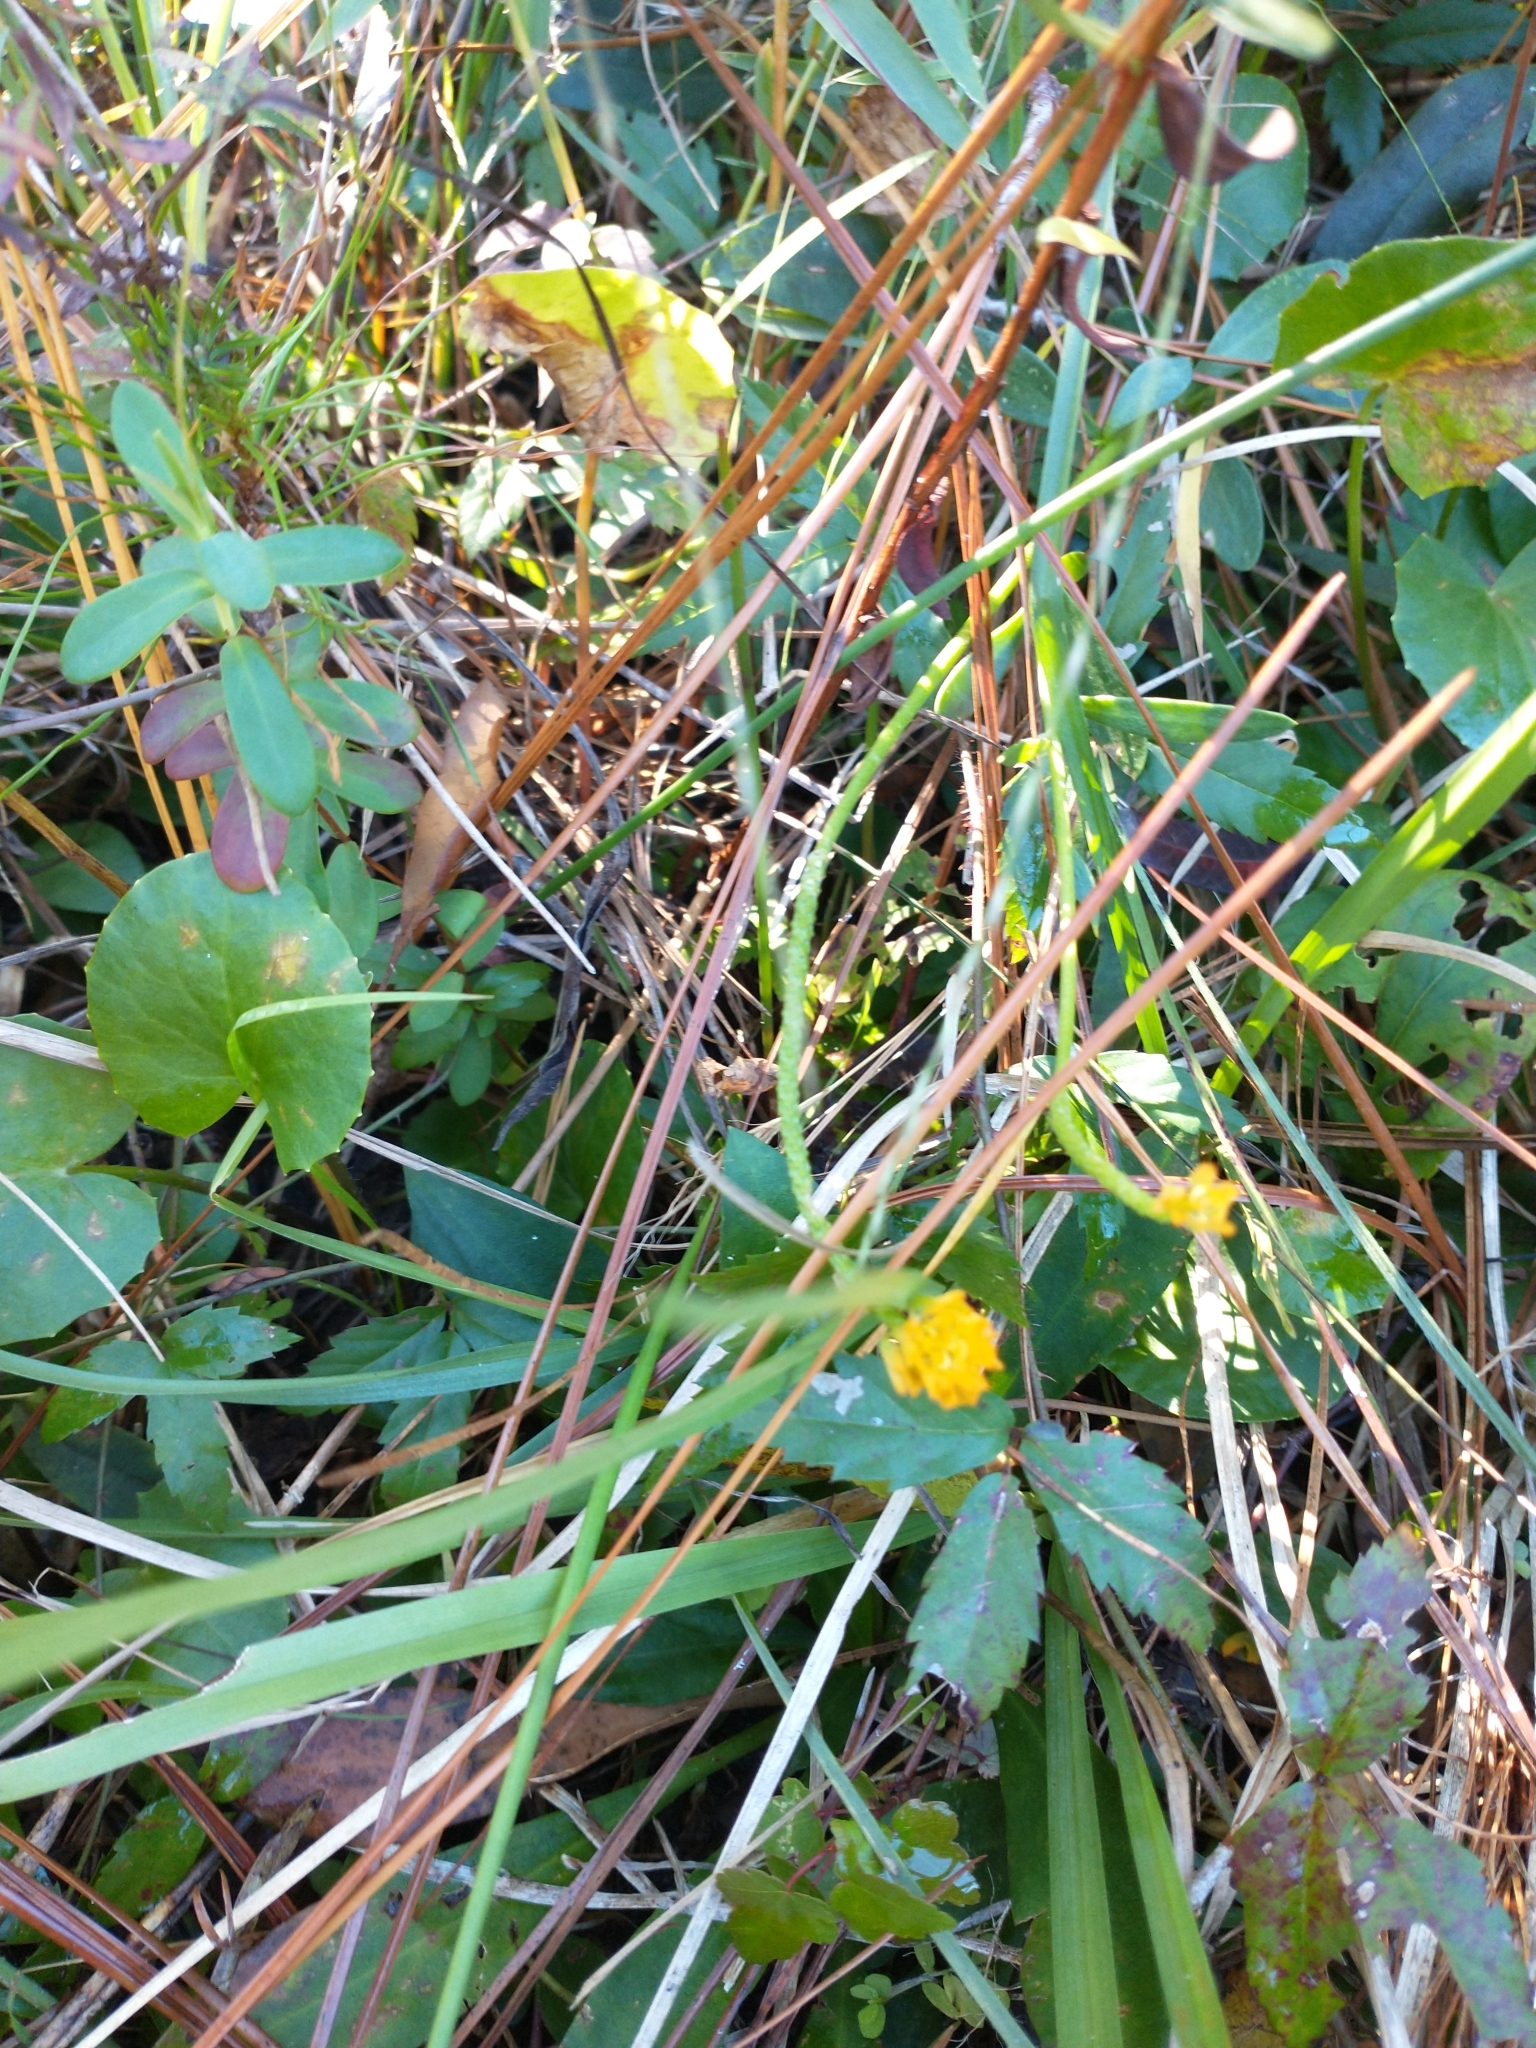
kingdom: Plantae
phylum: Tracheophyta
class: Magnoliopsida
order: Fabales
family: Polygalaceae
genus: Polygala
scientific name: Polygala lutea
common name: Orange milkwort
